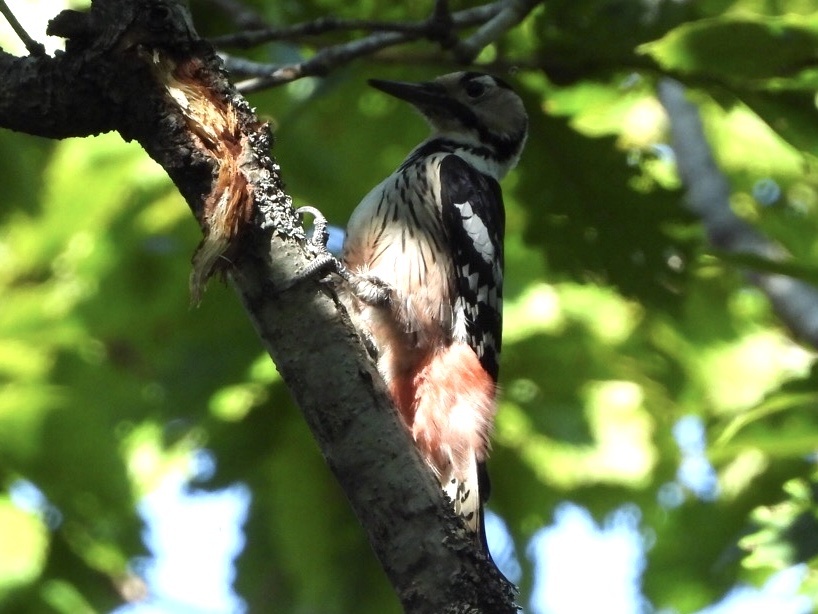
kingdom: Animalia
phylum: Chordata
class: Aves
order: Piciformes
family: Picidae
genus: Dendrocopos
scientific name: Dendrocopos leucotos
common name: White-backed woodpecker
